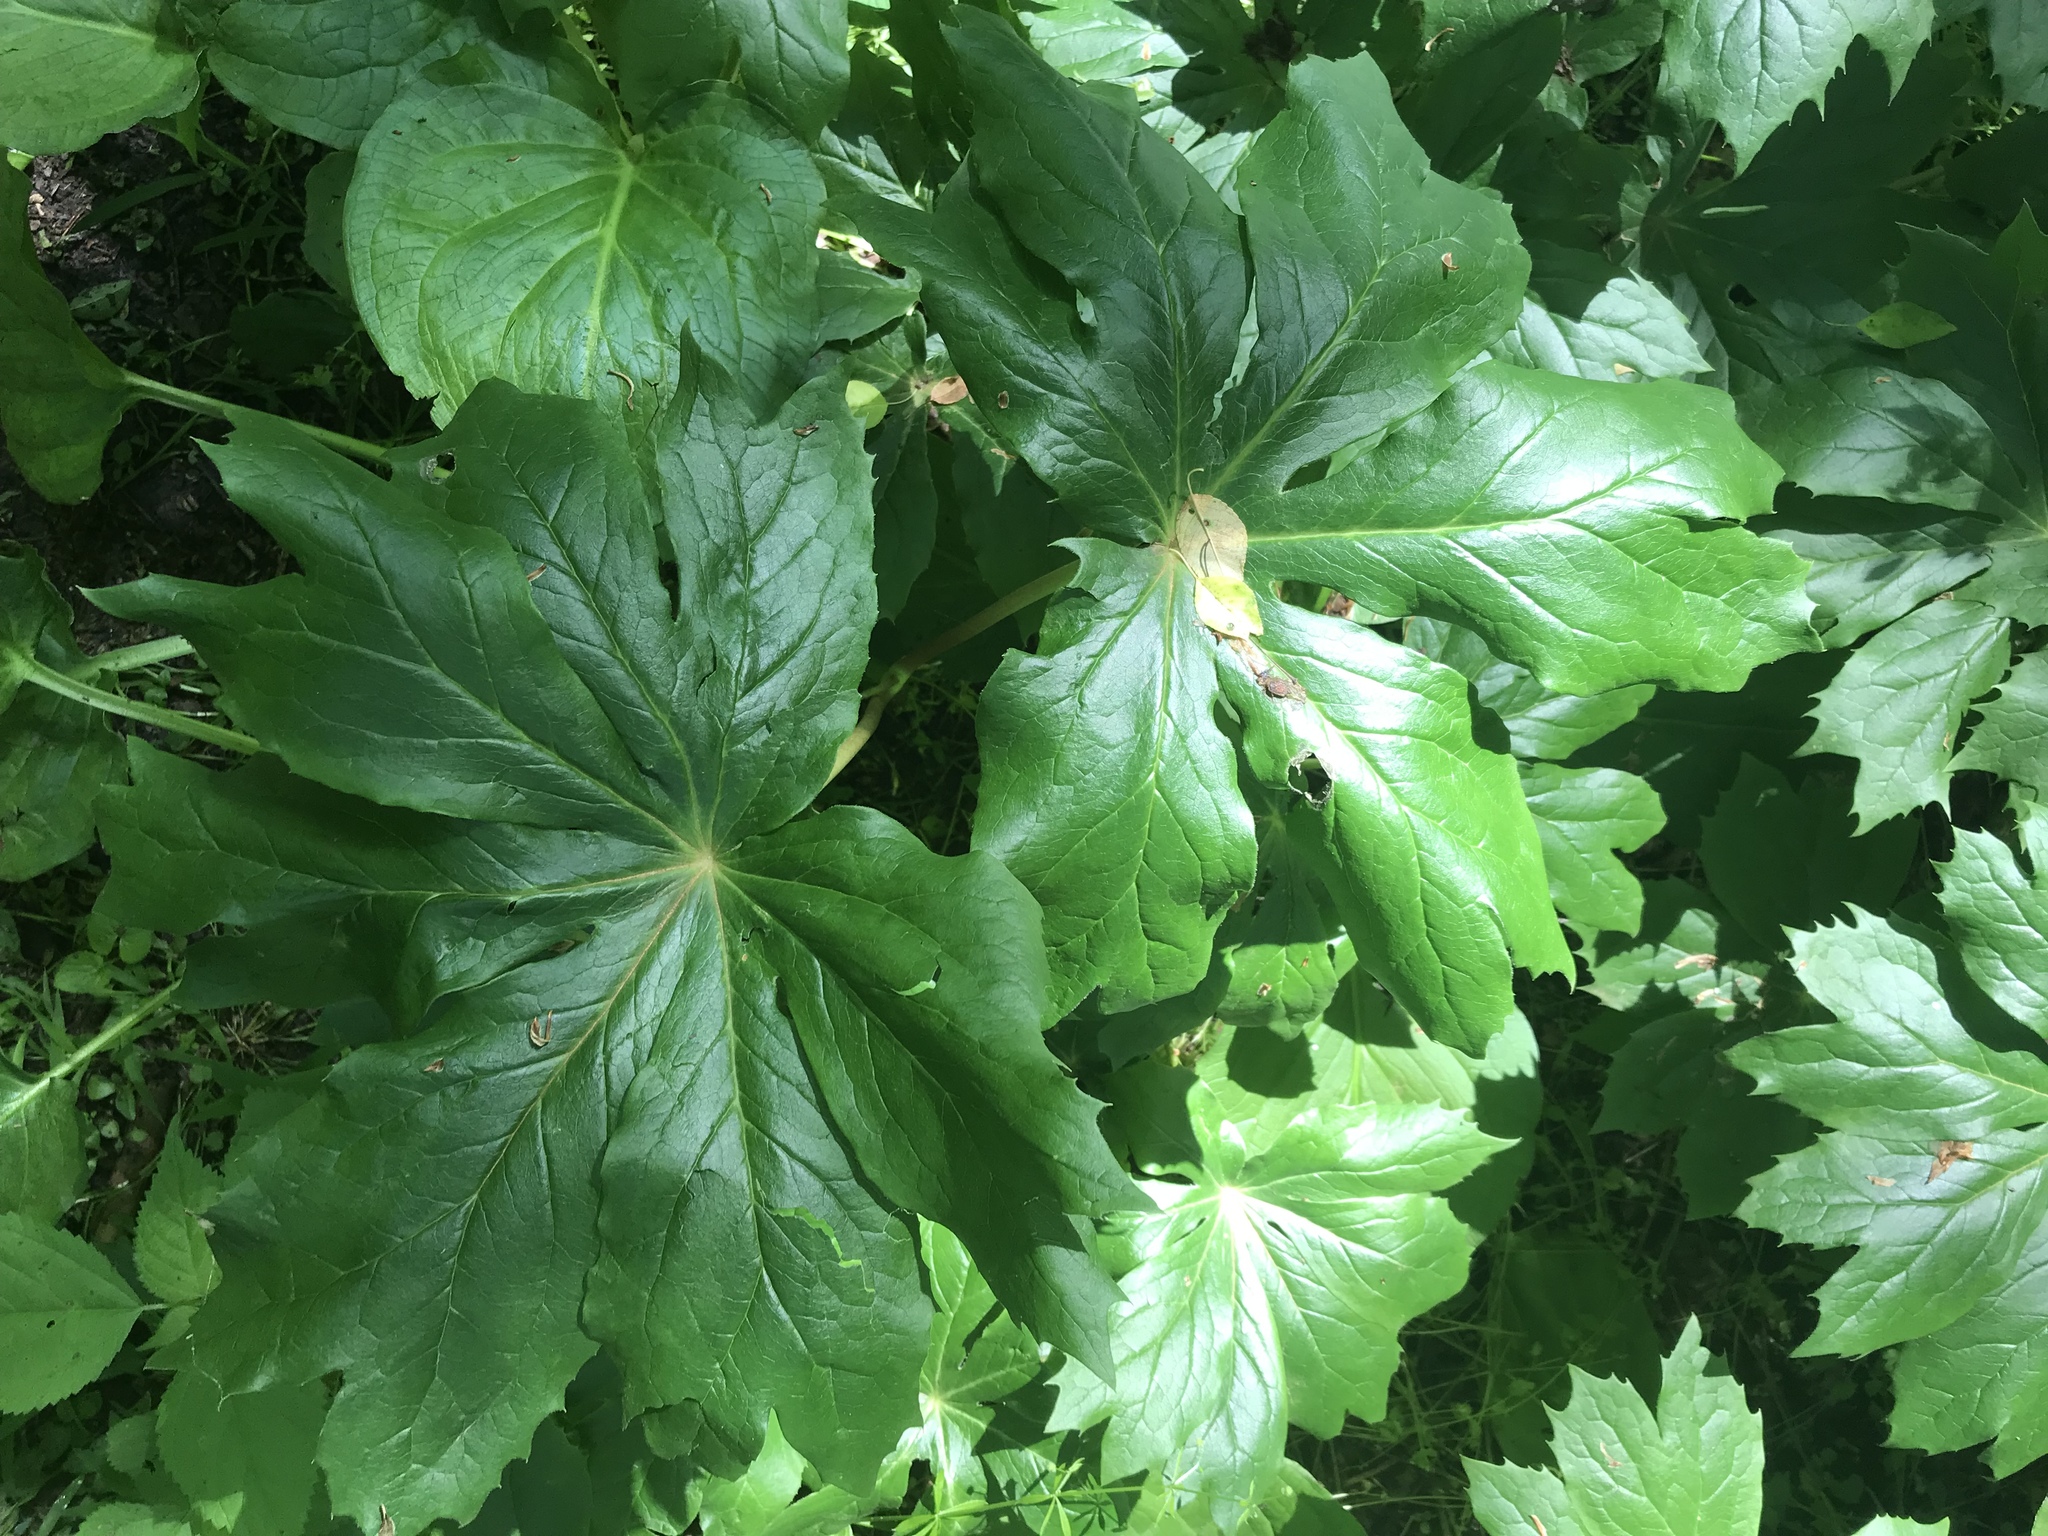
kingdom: Plantae
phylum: Tracheophyta
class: Magnoliopsida
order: Ranunculales
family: Berberidaceae
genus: Podophyllum
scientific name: Podophyllum peltatum
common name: Wild mandrake
